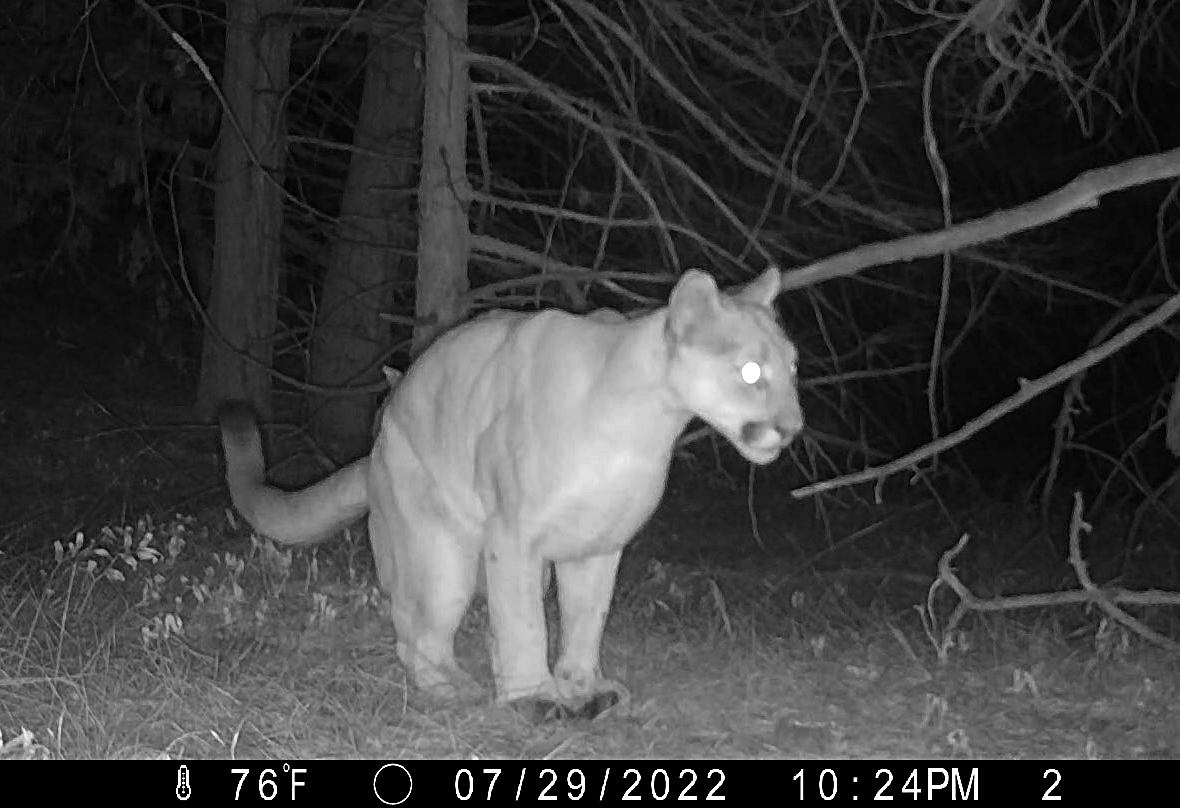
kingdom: Animalia
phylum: Chordata
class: Mammalia
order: Carnivora
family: Felidae
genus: Puma
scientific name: Puma concolor
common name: Puma
